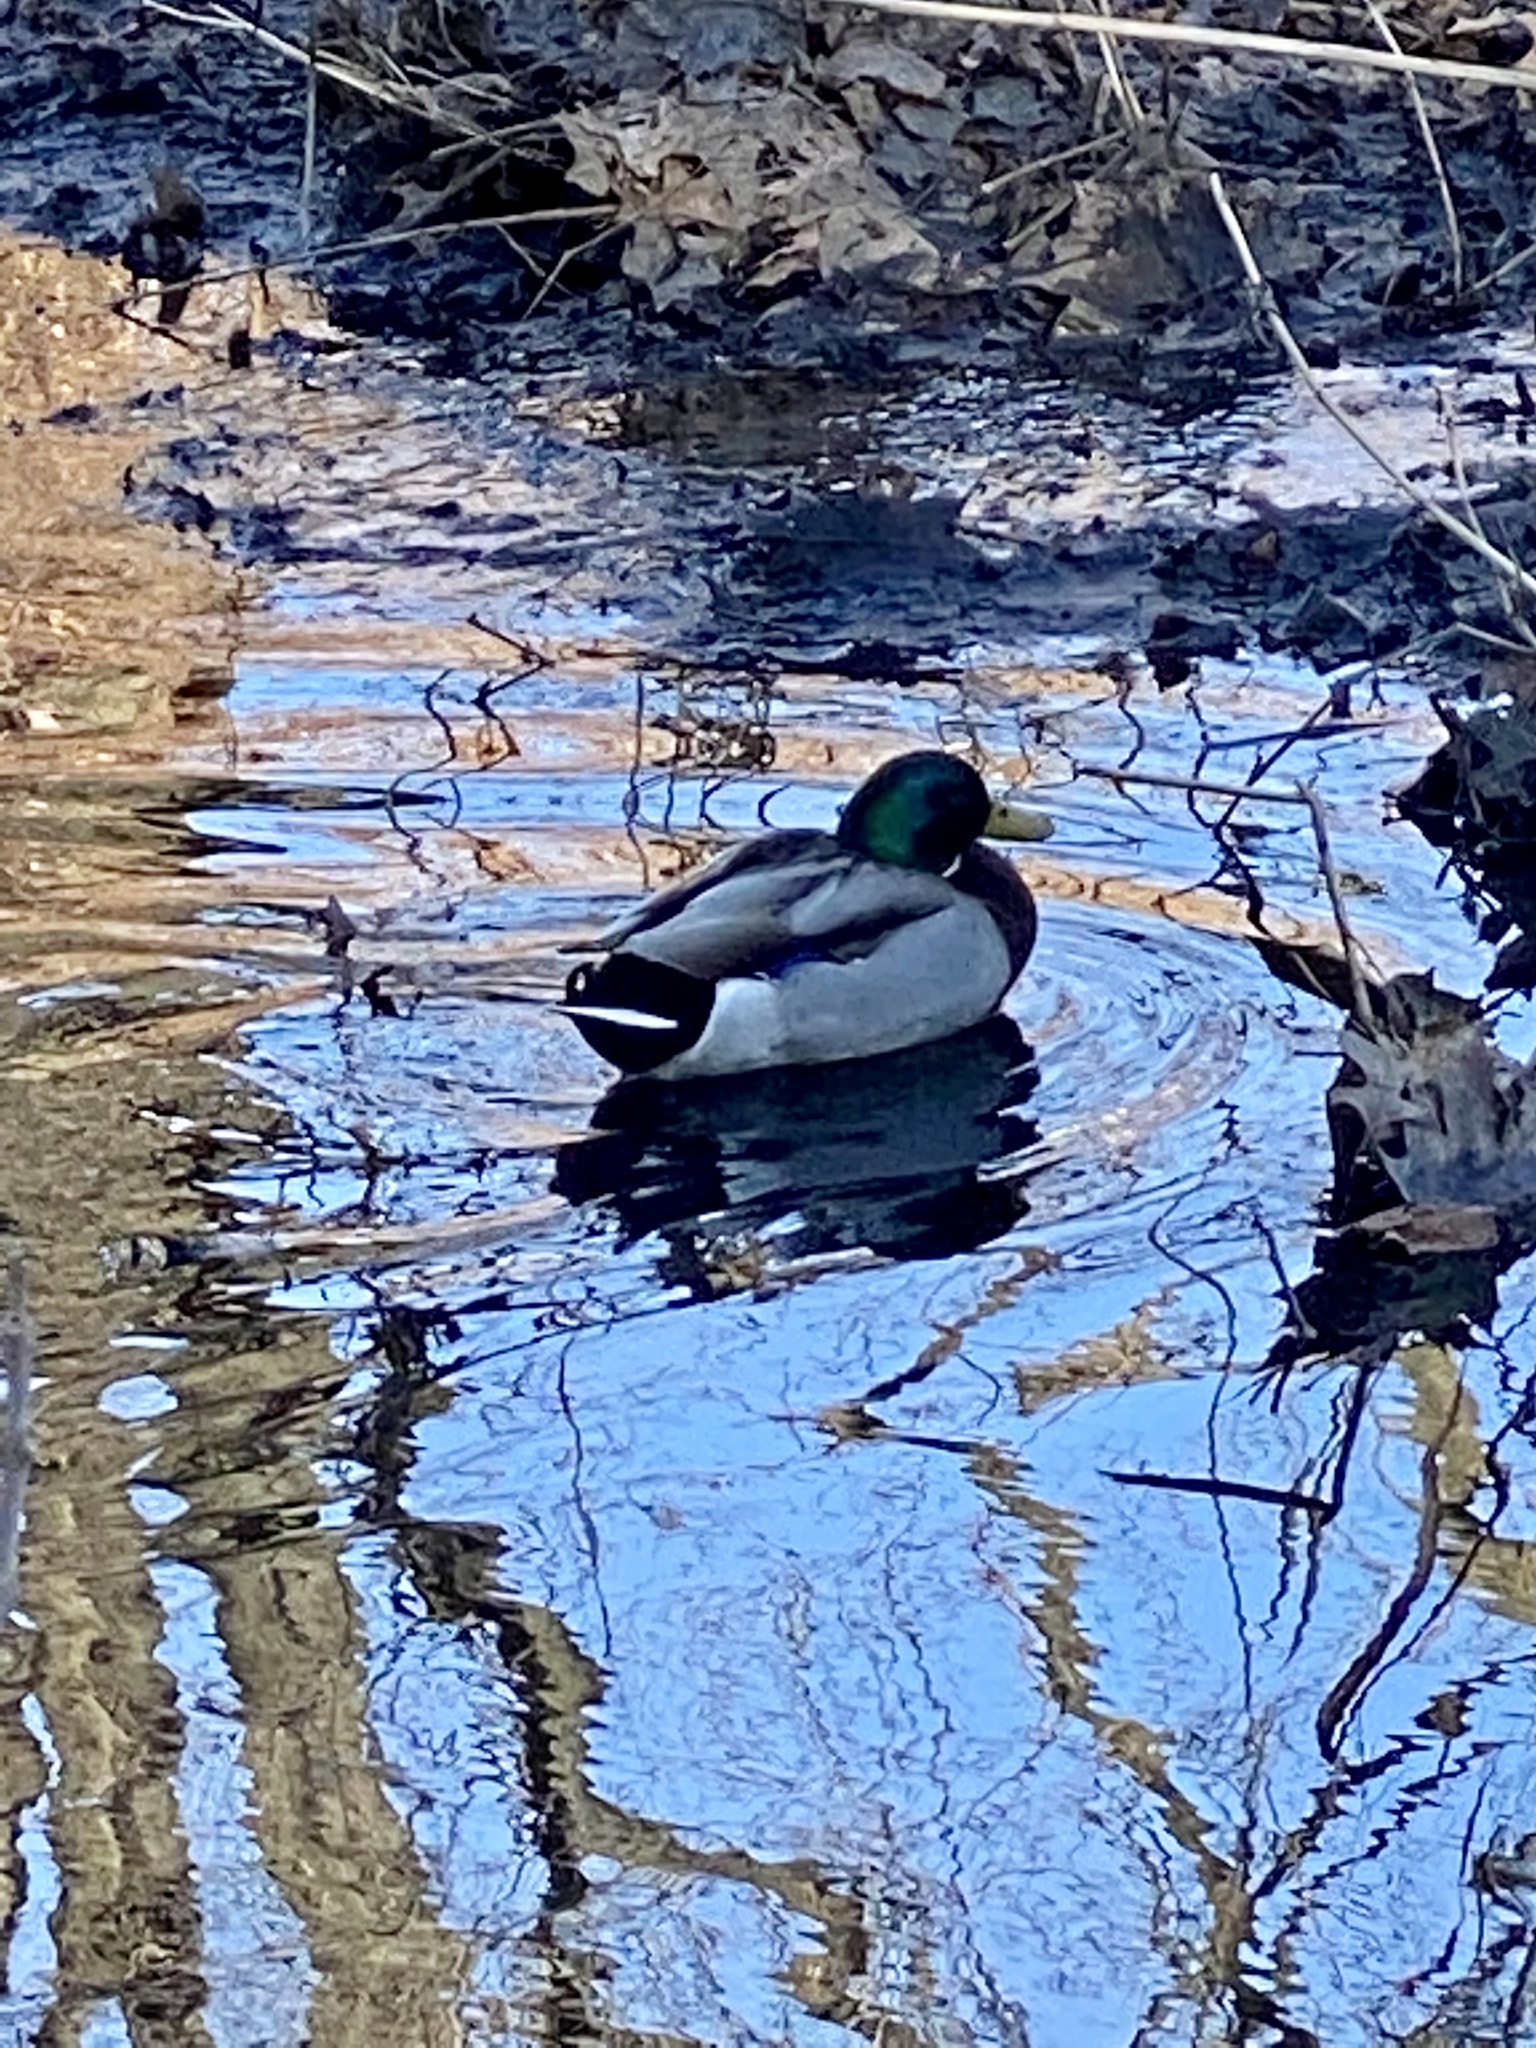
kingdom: Animalia
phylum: Chordata
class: Aves
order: Anseriformes
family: Anatidae
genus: Anas
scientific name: Anas platyrhynchos
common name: Mallard
